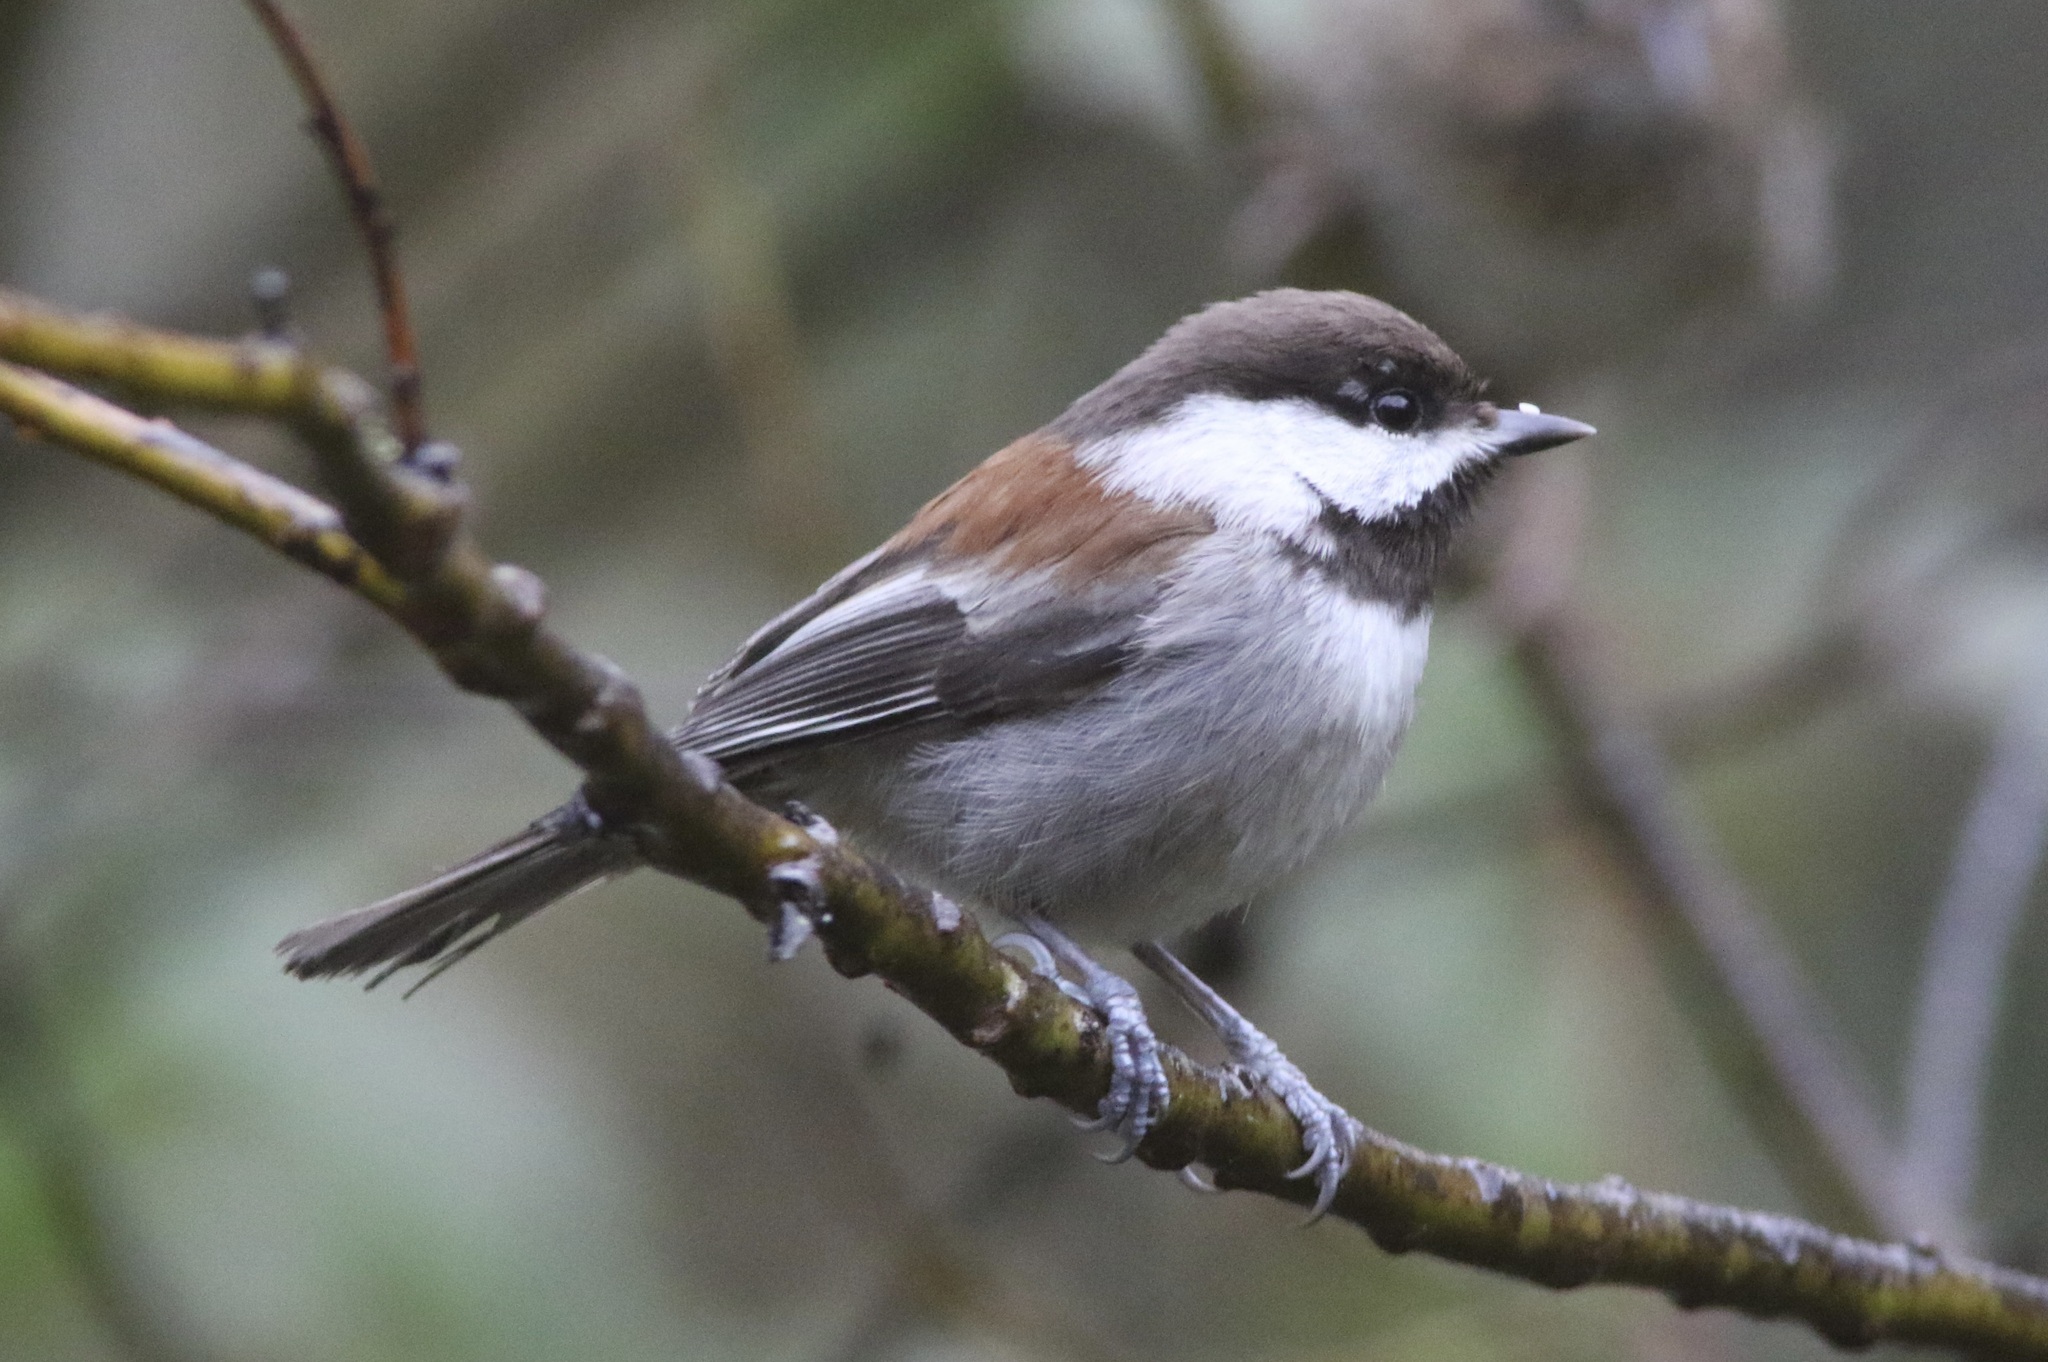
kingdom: Animalia
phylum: Chordata
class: Aves
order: Passeriformes
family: Paridae
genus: Poecile
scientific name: Poecile rufescens
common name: Chestnut-backed chickadee
